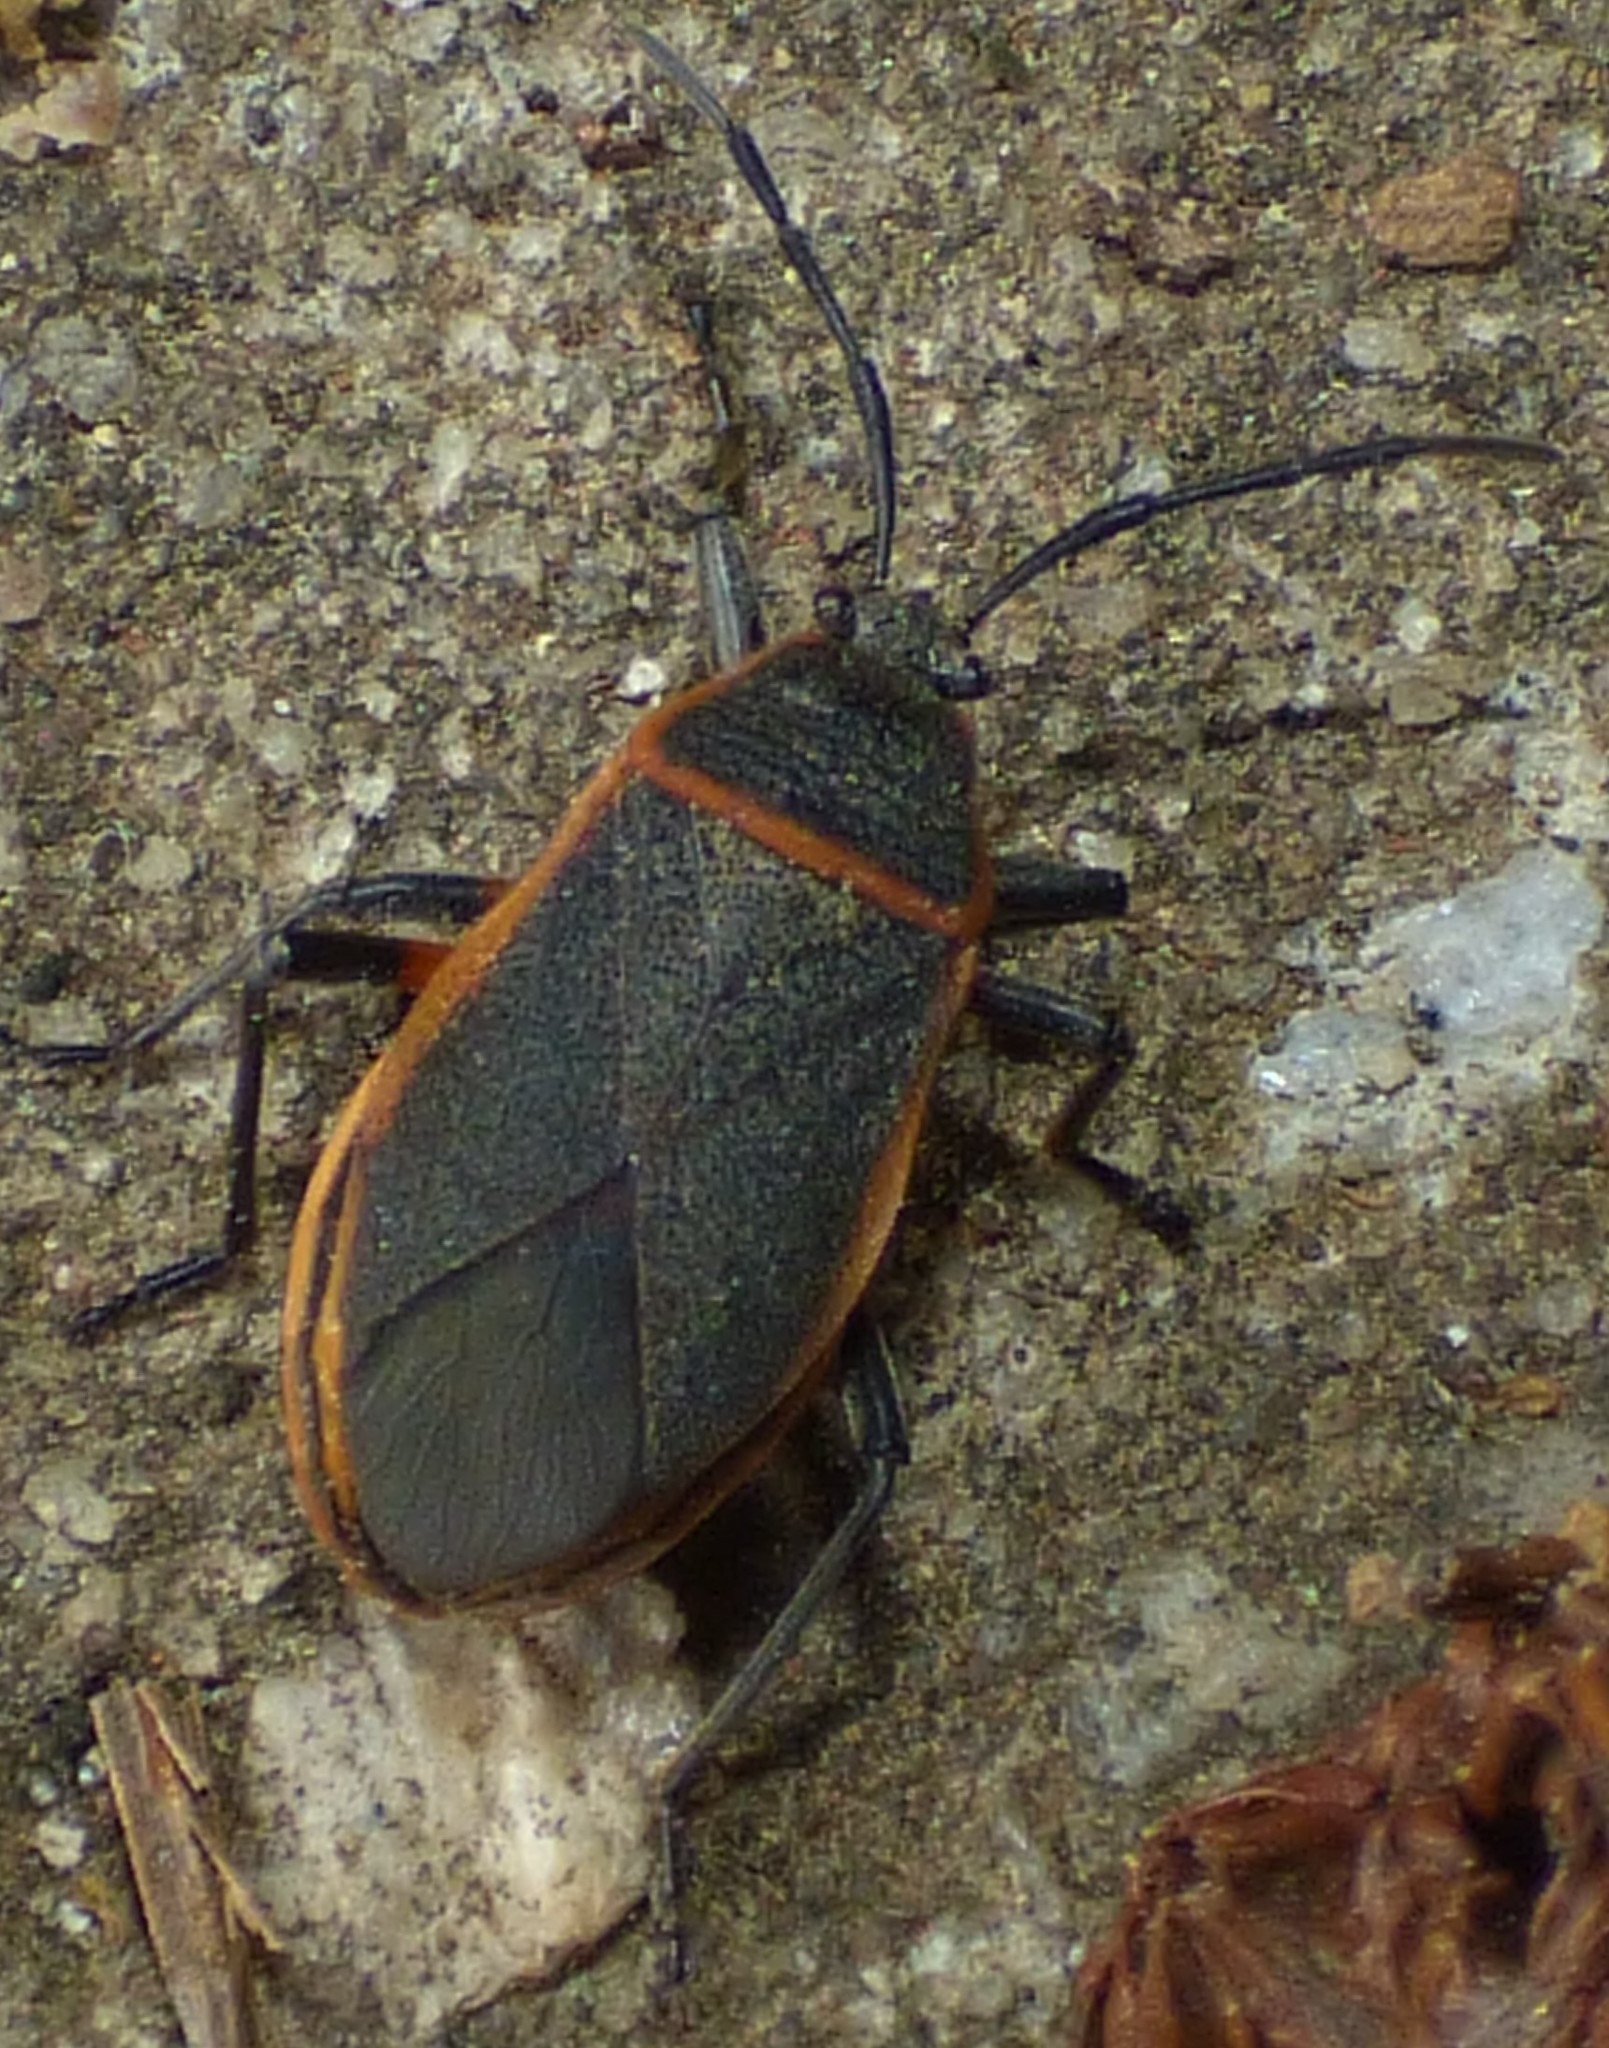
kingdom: Animalia
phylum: Arthropoda
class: Insecta
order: Hemiptera
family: Largidae
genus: Largus
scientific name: Largus succinctus
